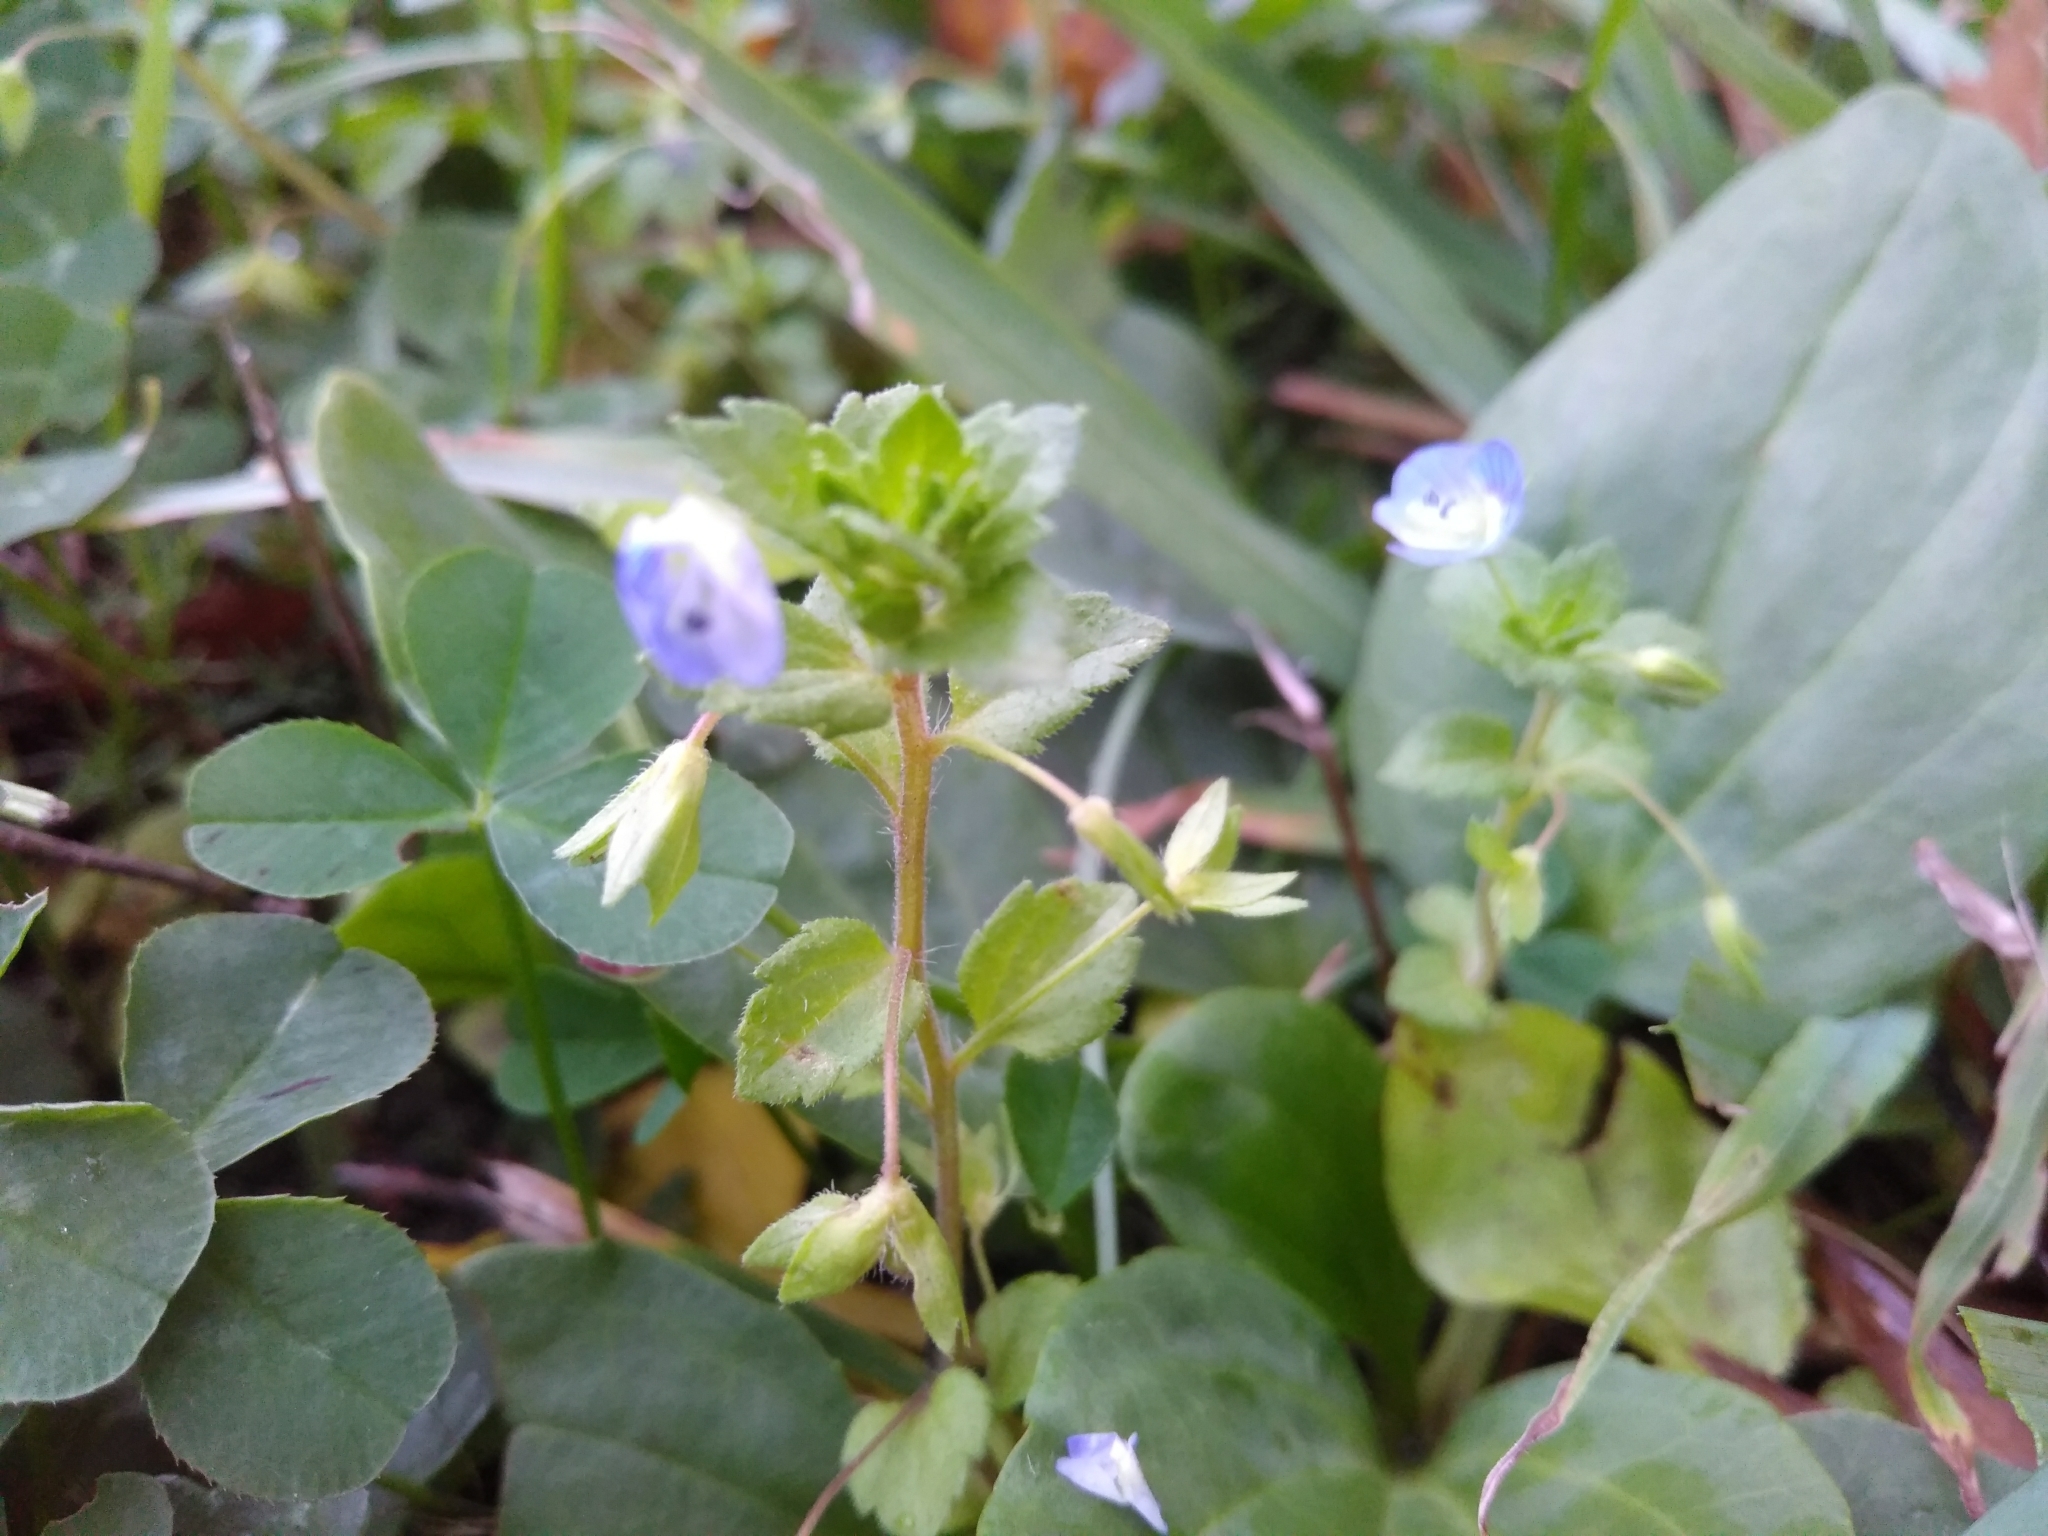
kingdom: Plantae
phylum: Tracheophyta
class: Magnoliopsida
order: Lamiales
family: Plantaginaceae
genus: Veronica
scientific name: Veronica persica
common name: Common field-speedwell
